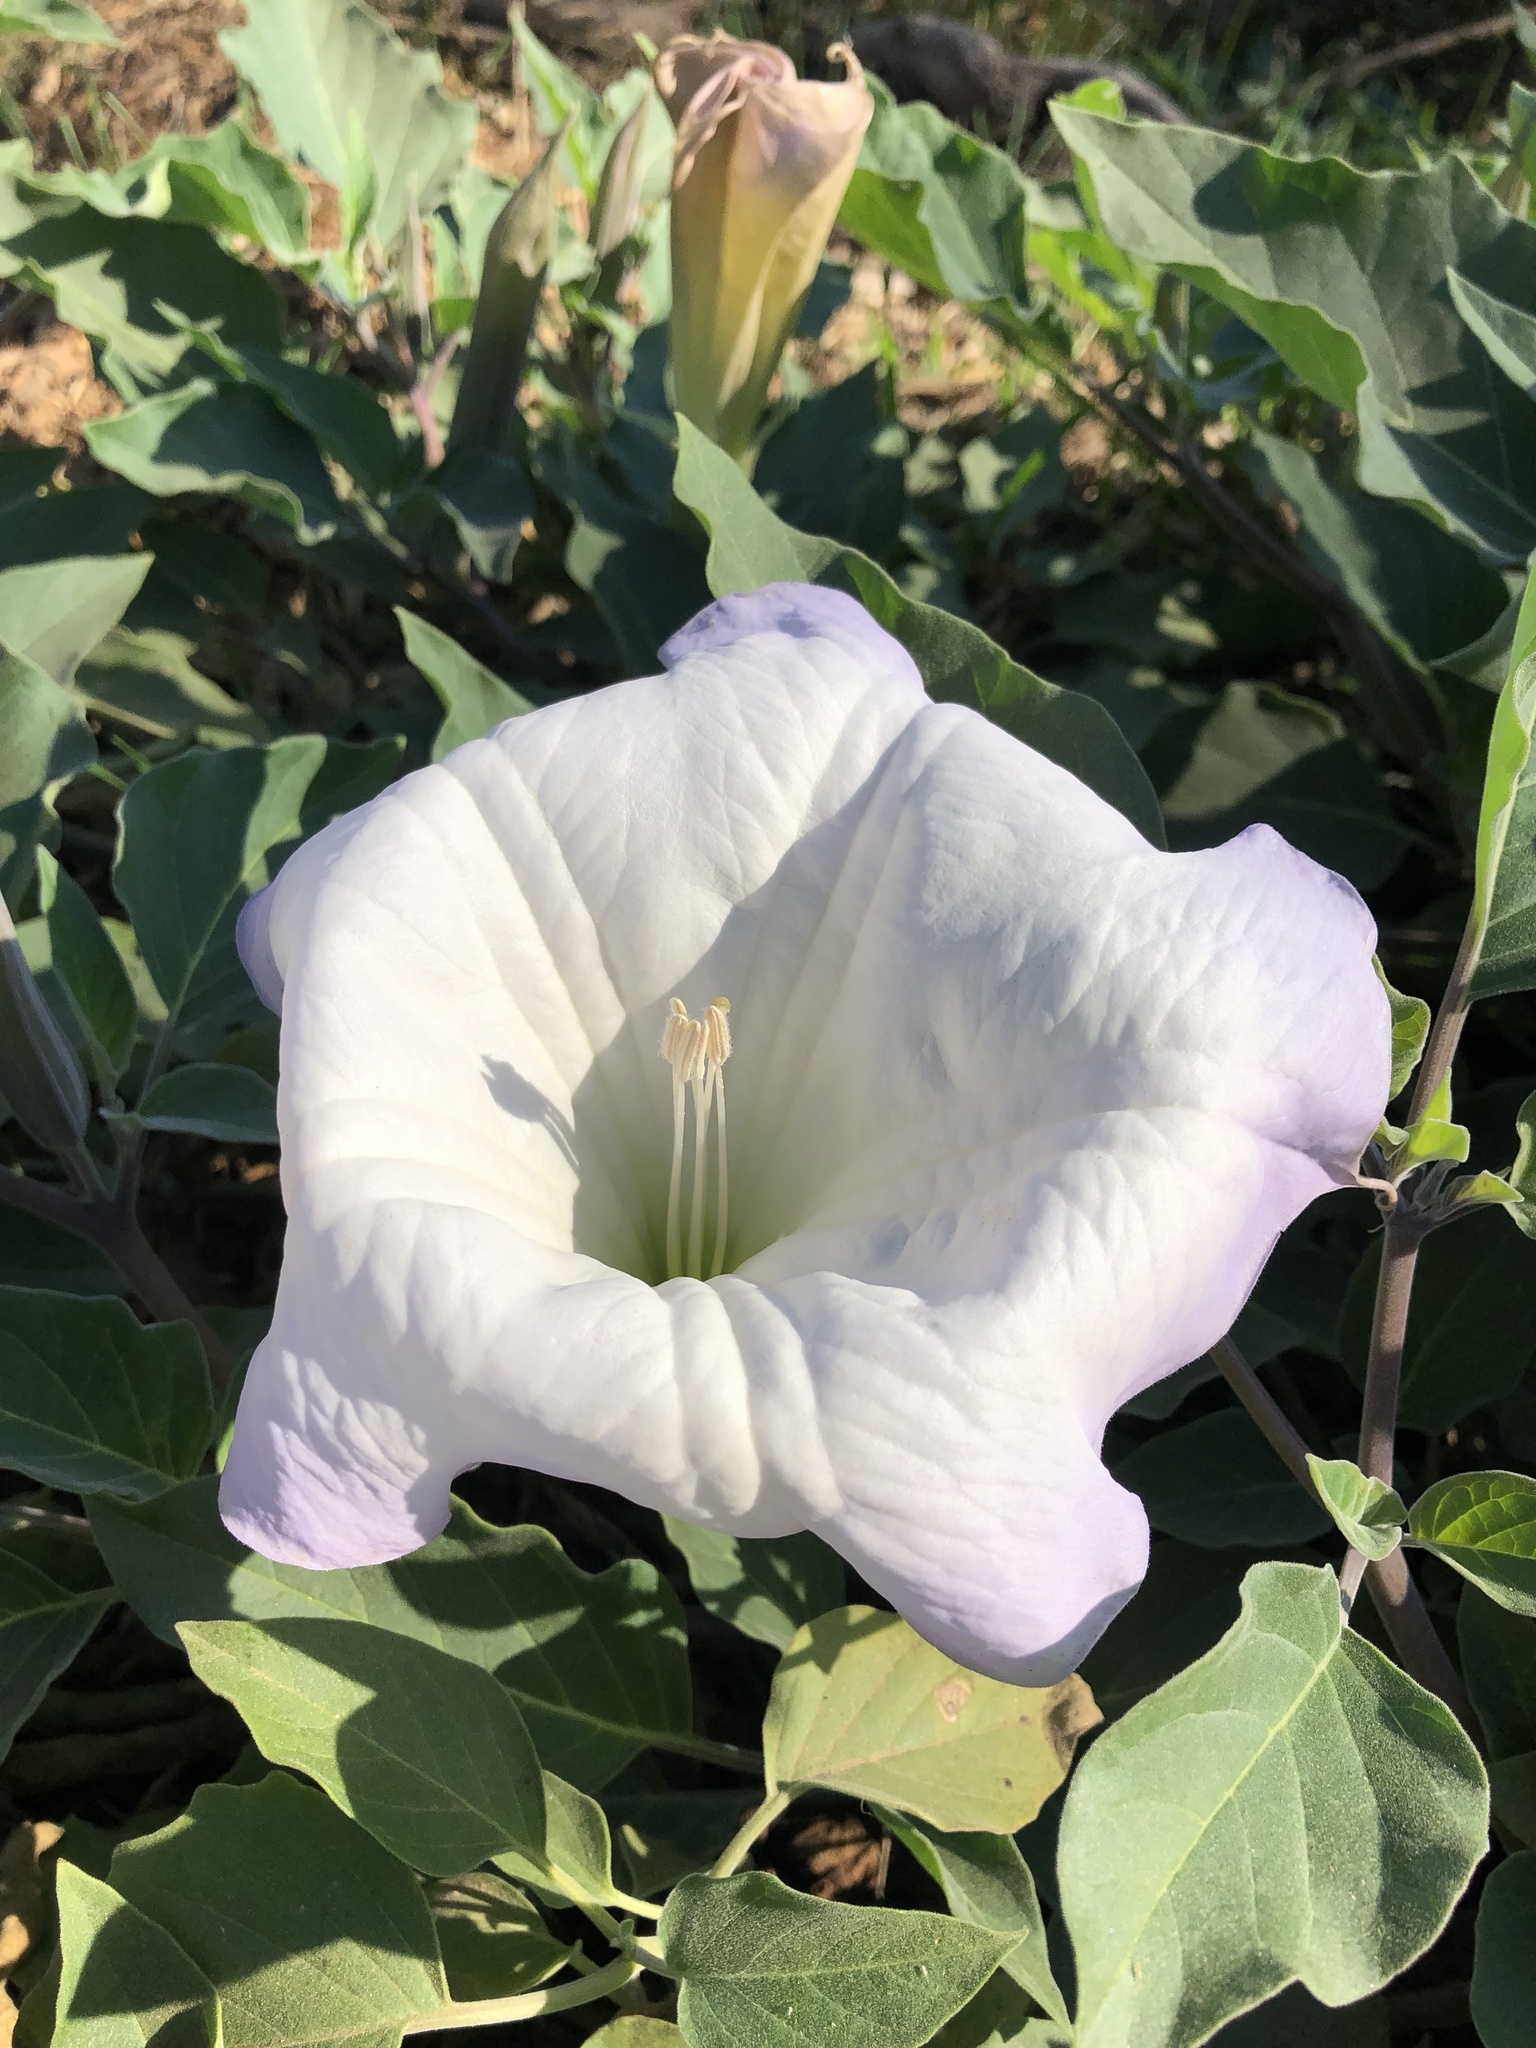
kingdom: Plantae
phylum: Tracheophyta
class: Magnoliopsida
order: Solanales
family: Solanaceae
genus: Datura
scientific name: Datura wrightii
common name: Sacred thorn-apple
